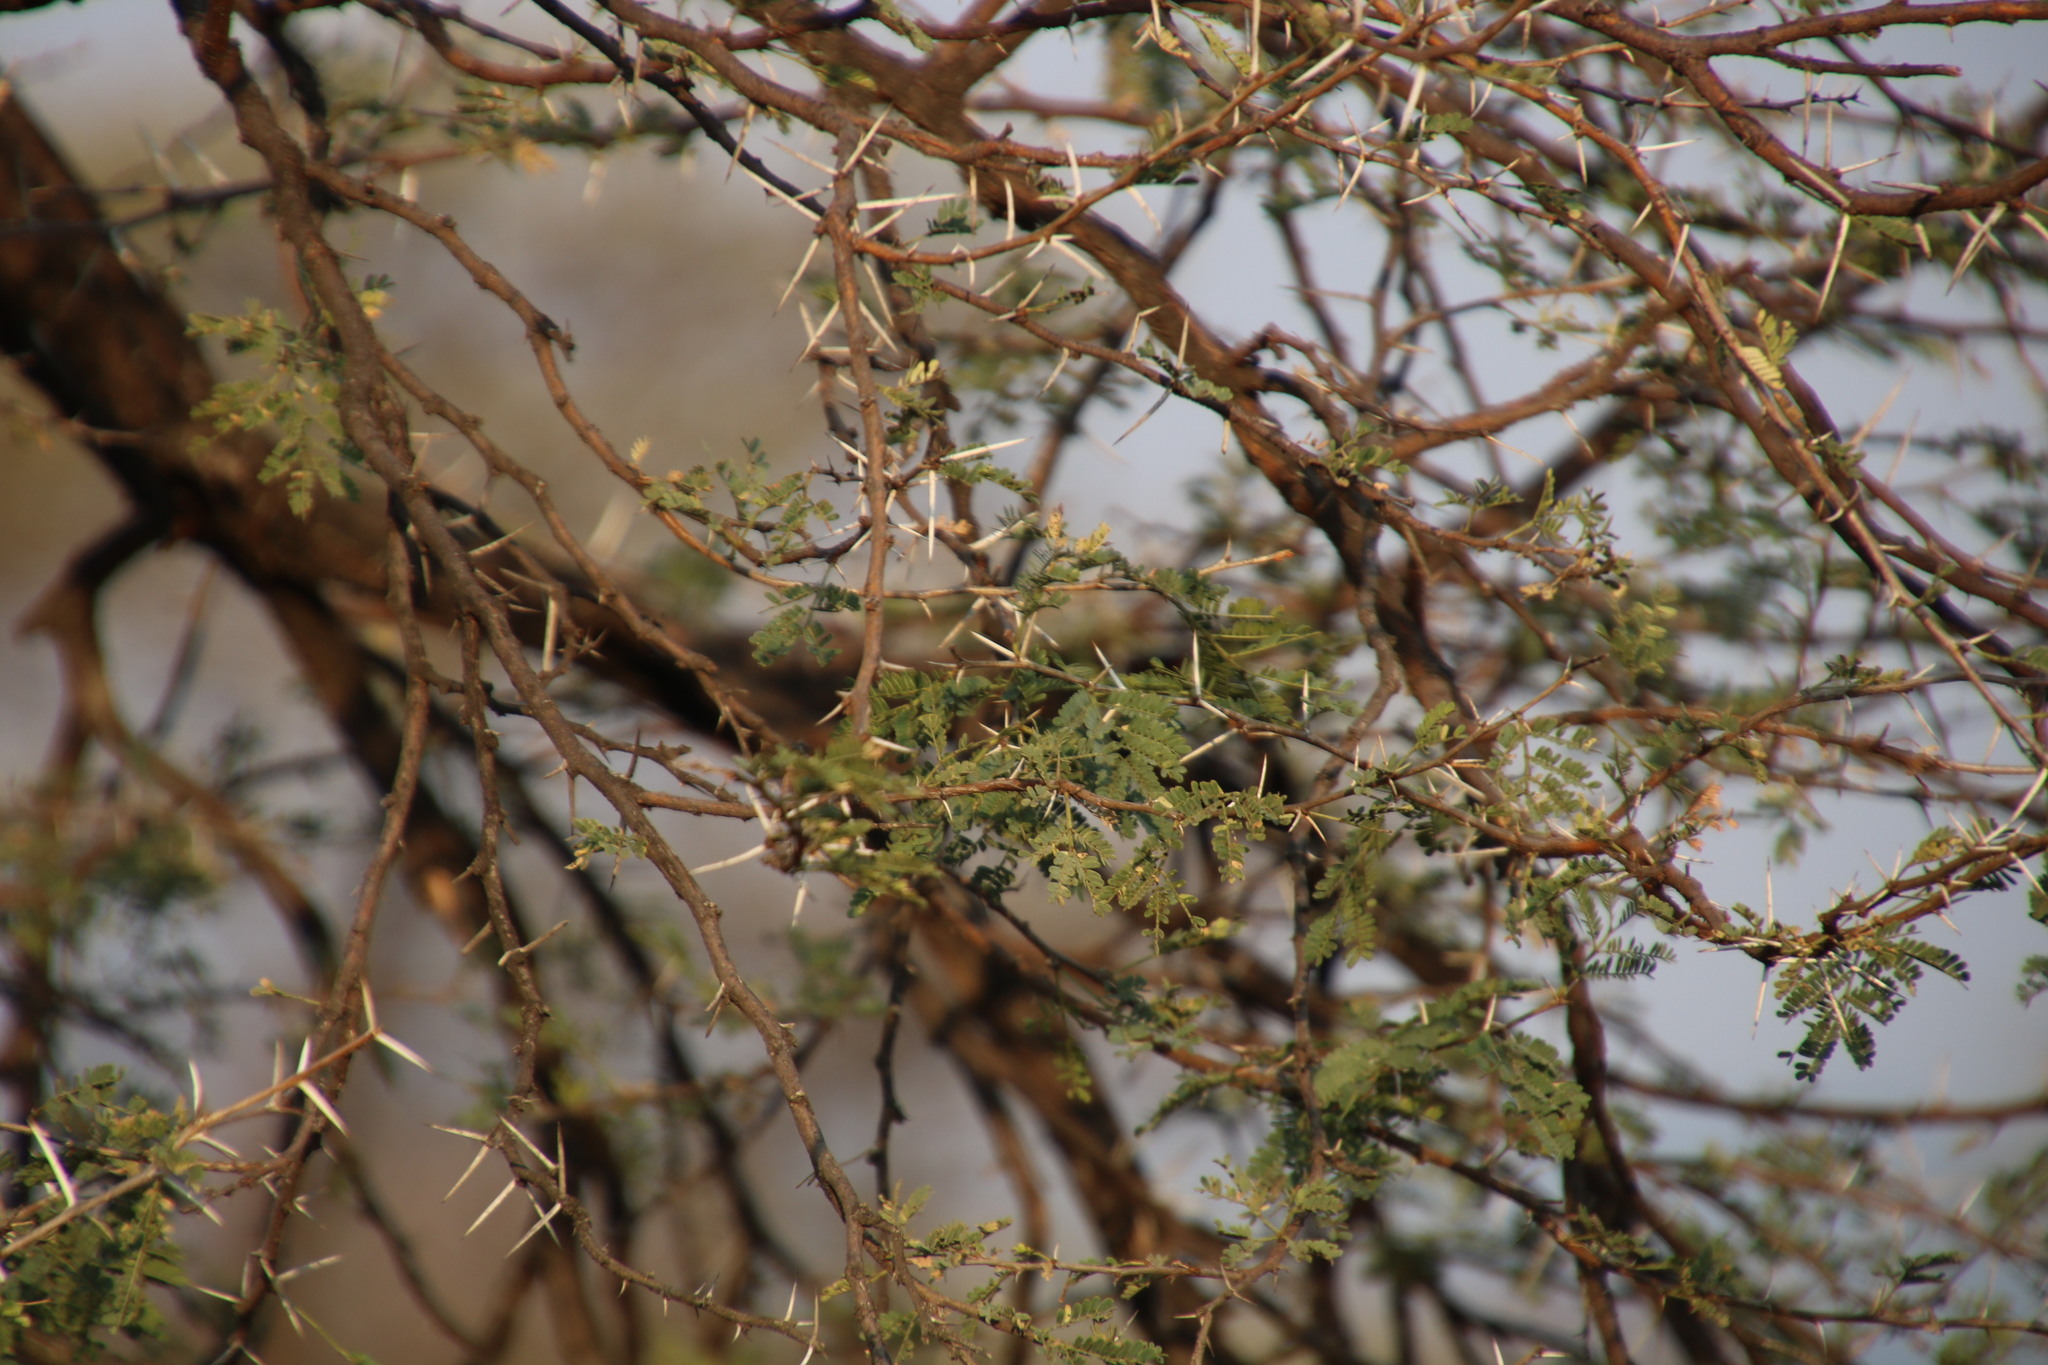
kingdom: Plantae
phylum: Tracheophyta
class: Magnoliopsida
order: Fabales
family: Fabaceae
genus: Vachellia
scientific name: Vachellia karroo
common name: Sweet thorn
